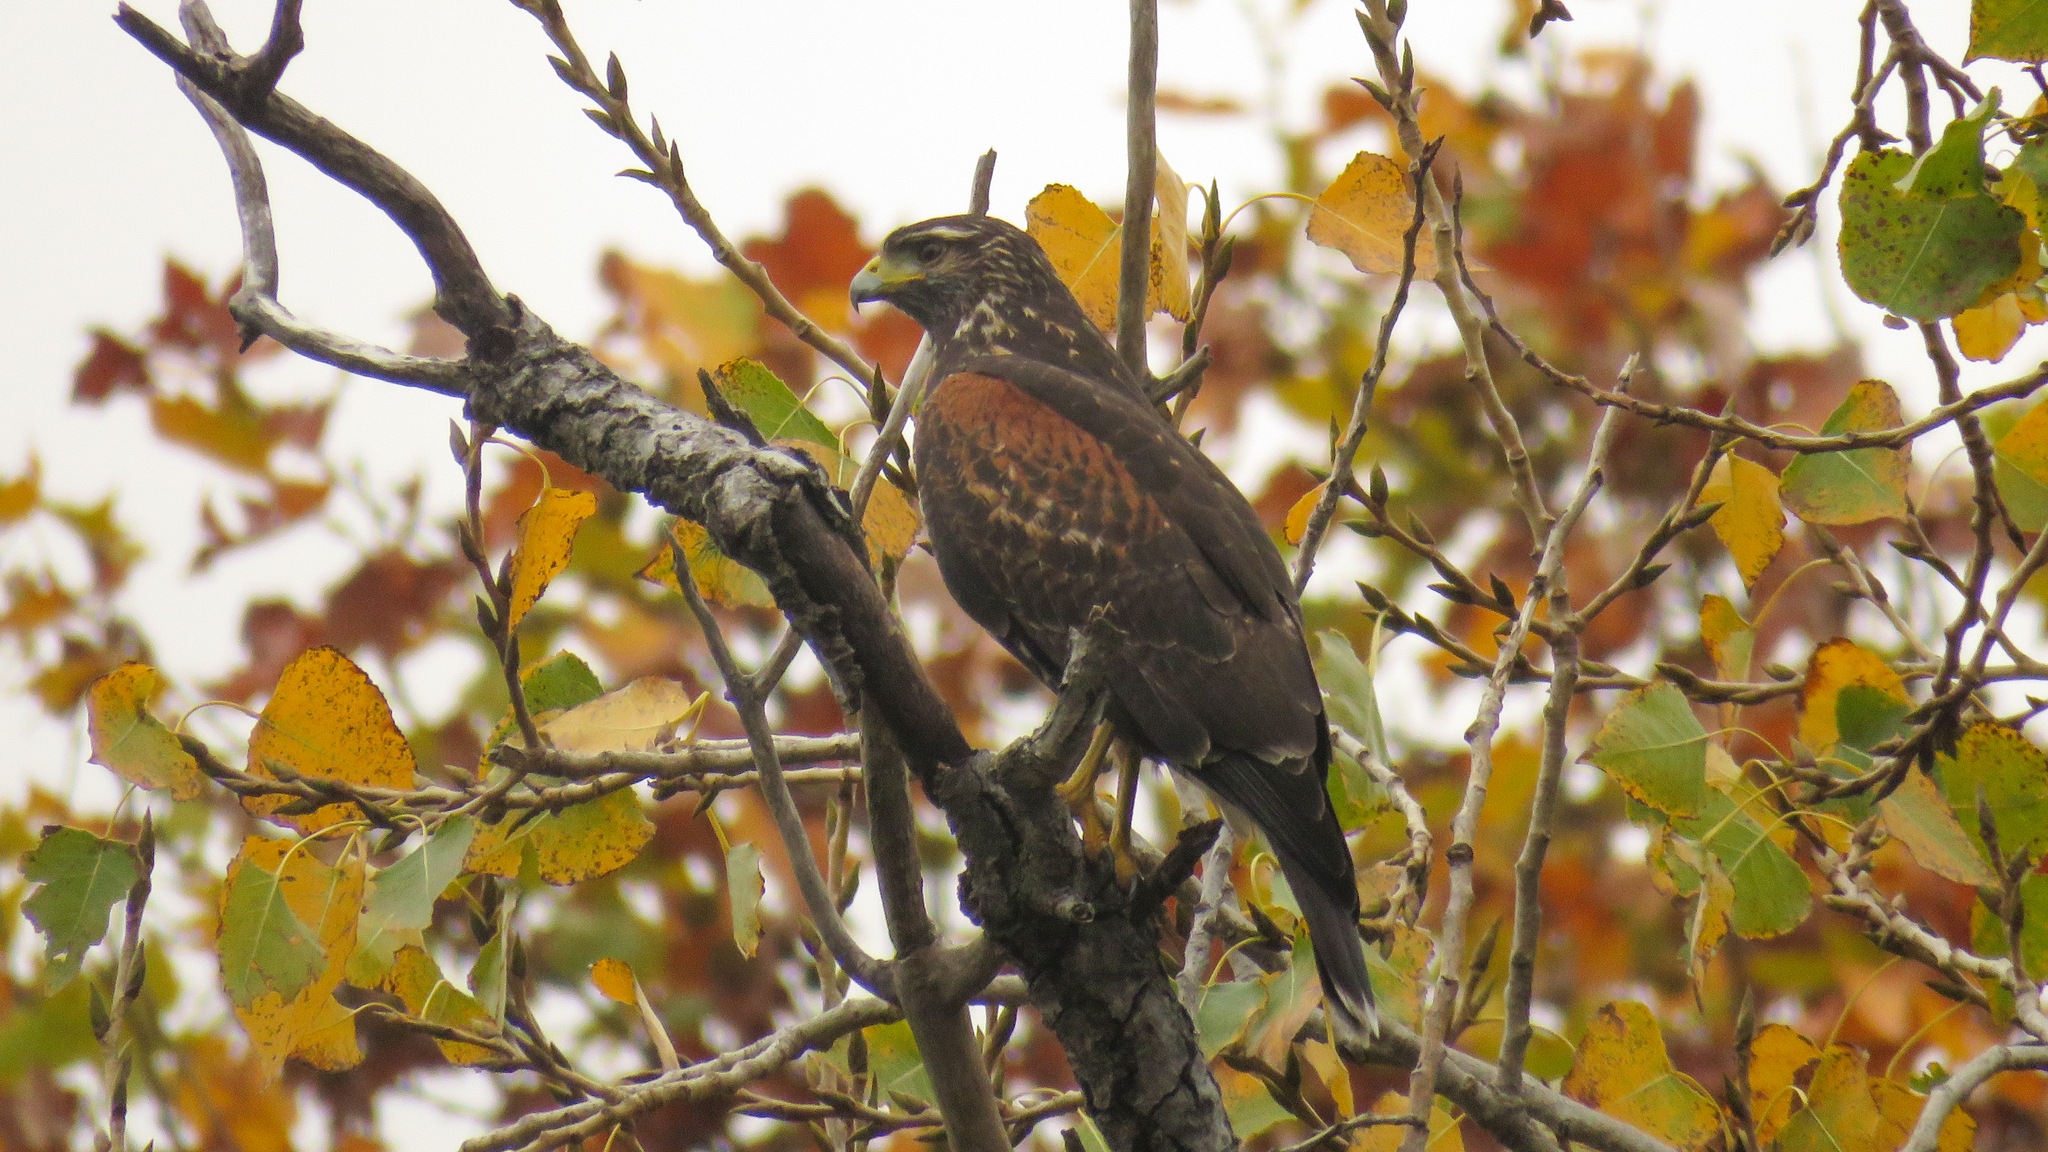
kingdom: Animalia
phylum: Chordata
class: Aves
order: Accipitriformes
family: Accipitridae
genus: Parabuteo
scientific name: Parabuteo unicinctus
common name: Harris's hawk
